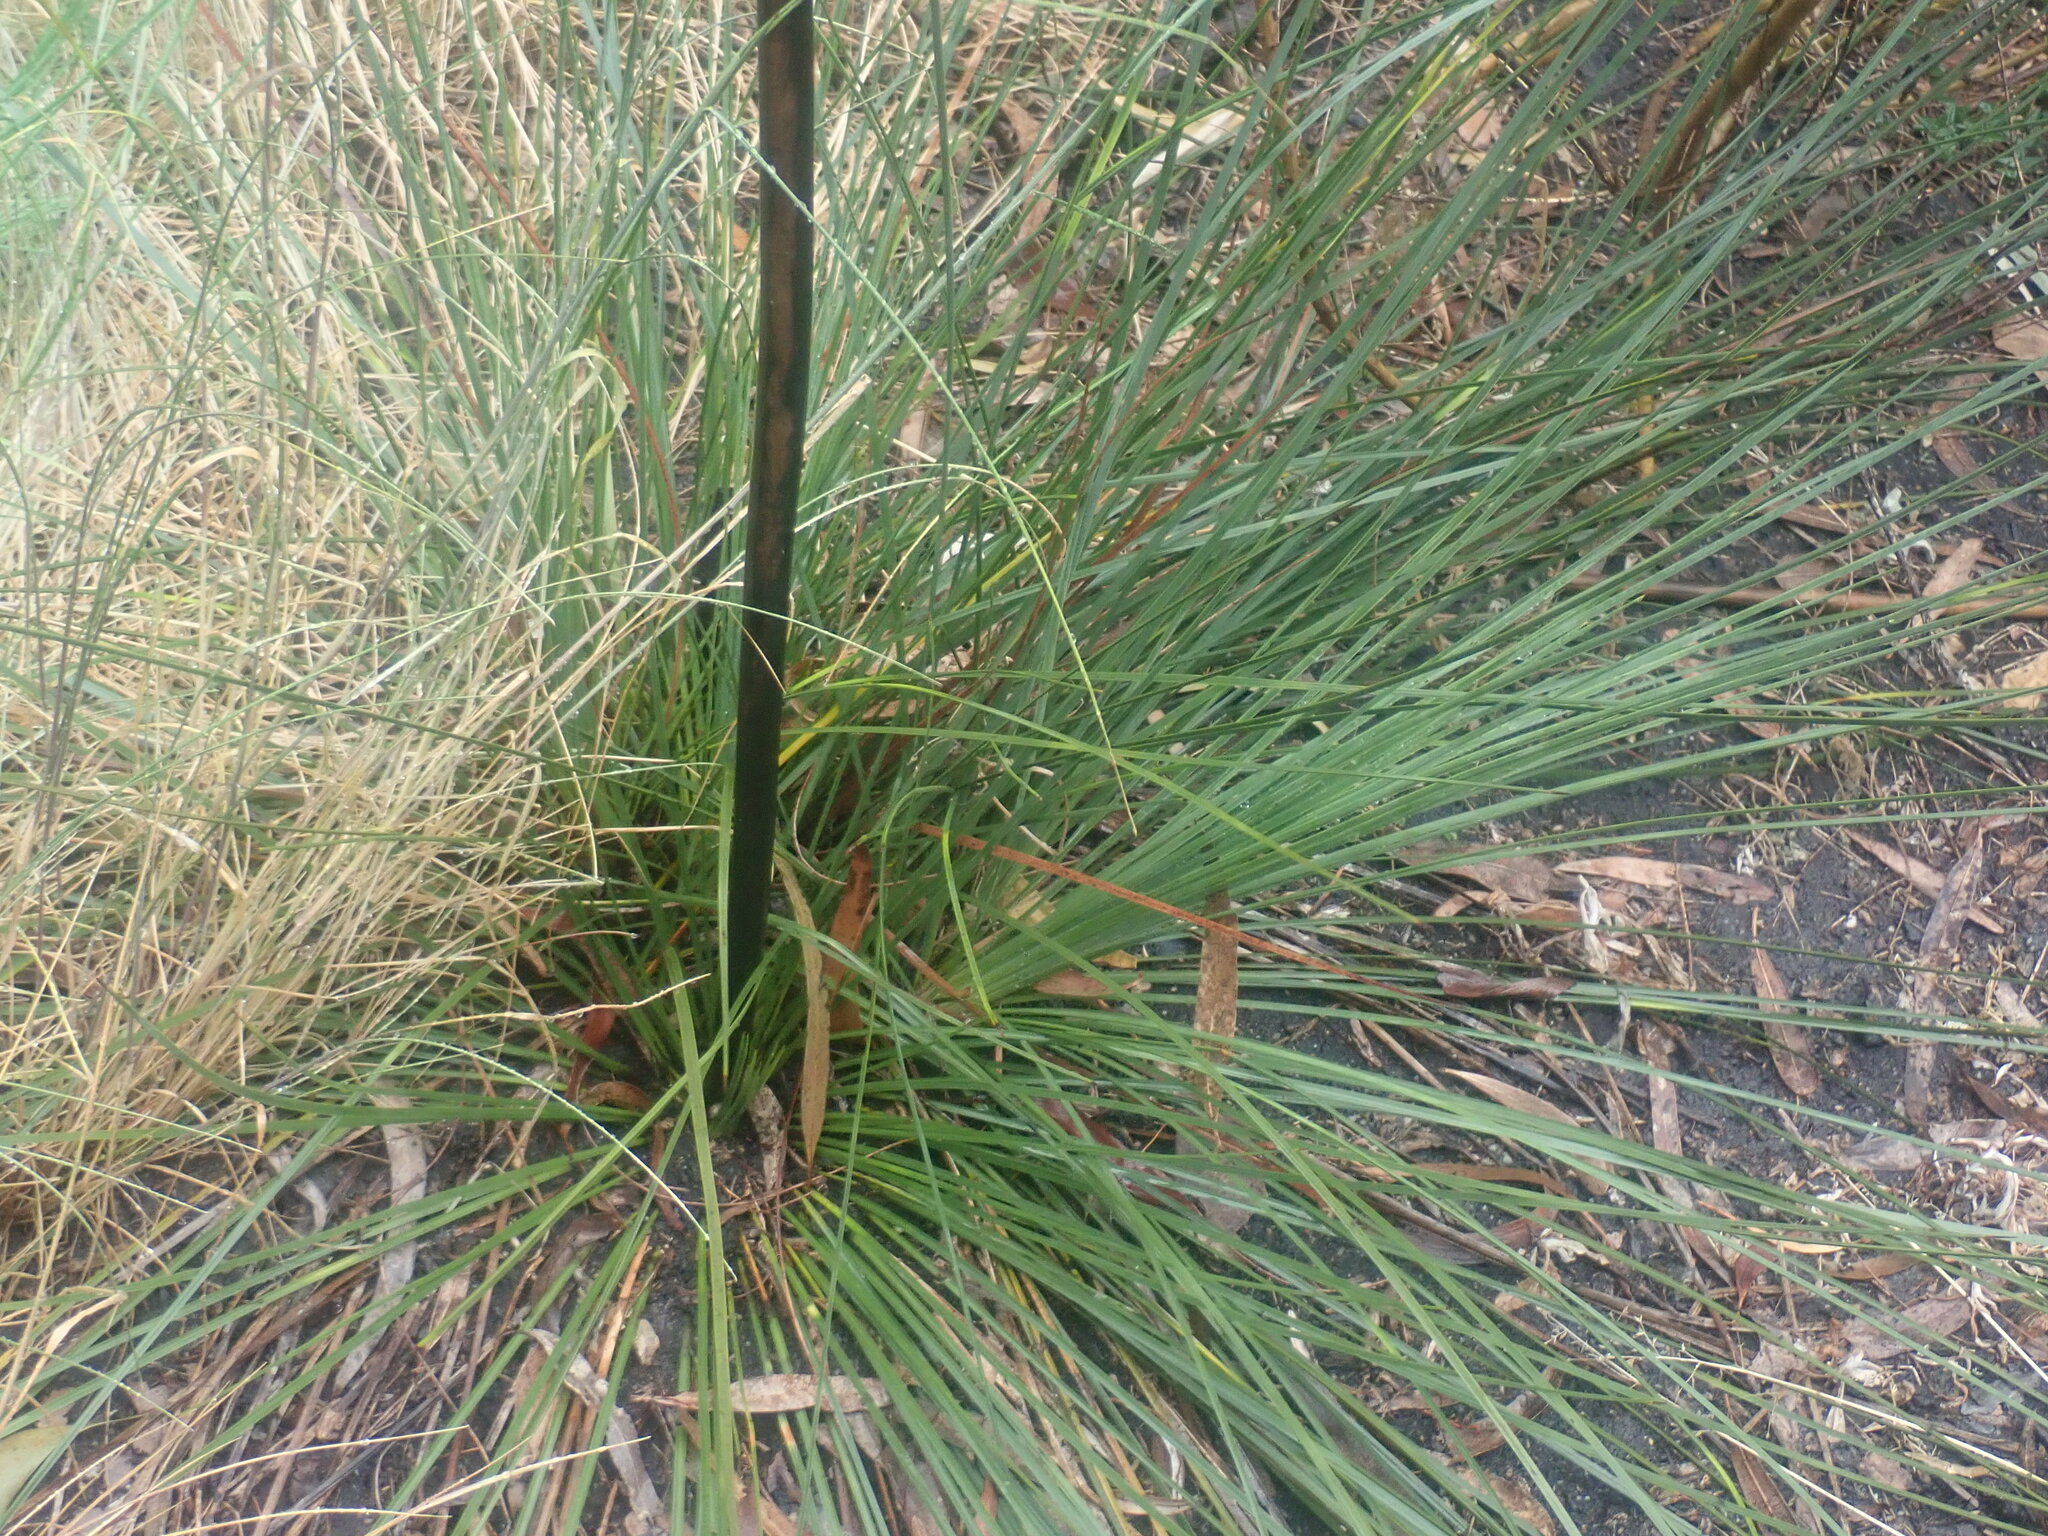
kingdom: Plantae
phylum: Tracheophyta
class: Liliopsida
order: Asparagales
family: Asphodelaceae
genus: Xanthorrhoea
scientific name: Xanthorrhoea minor
